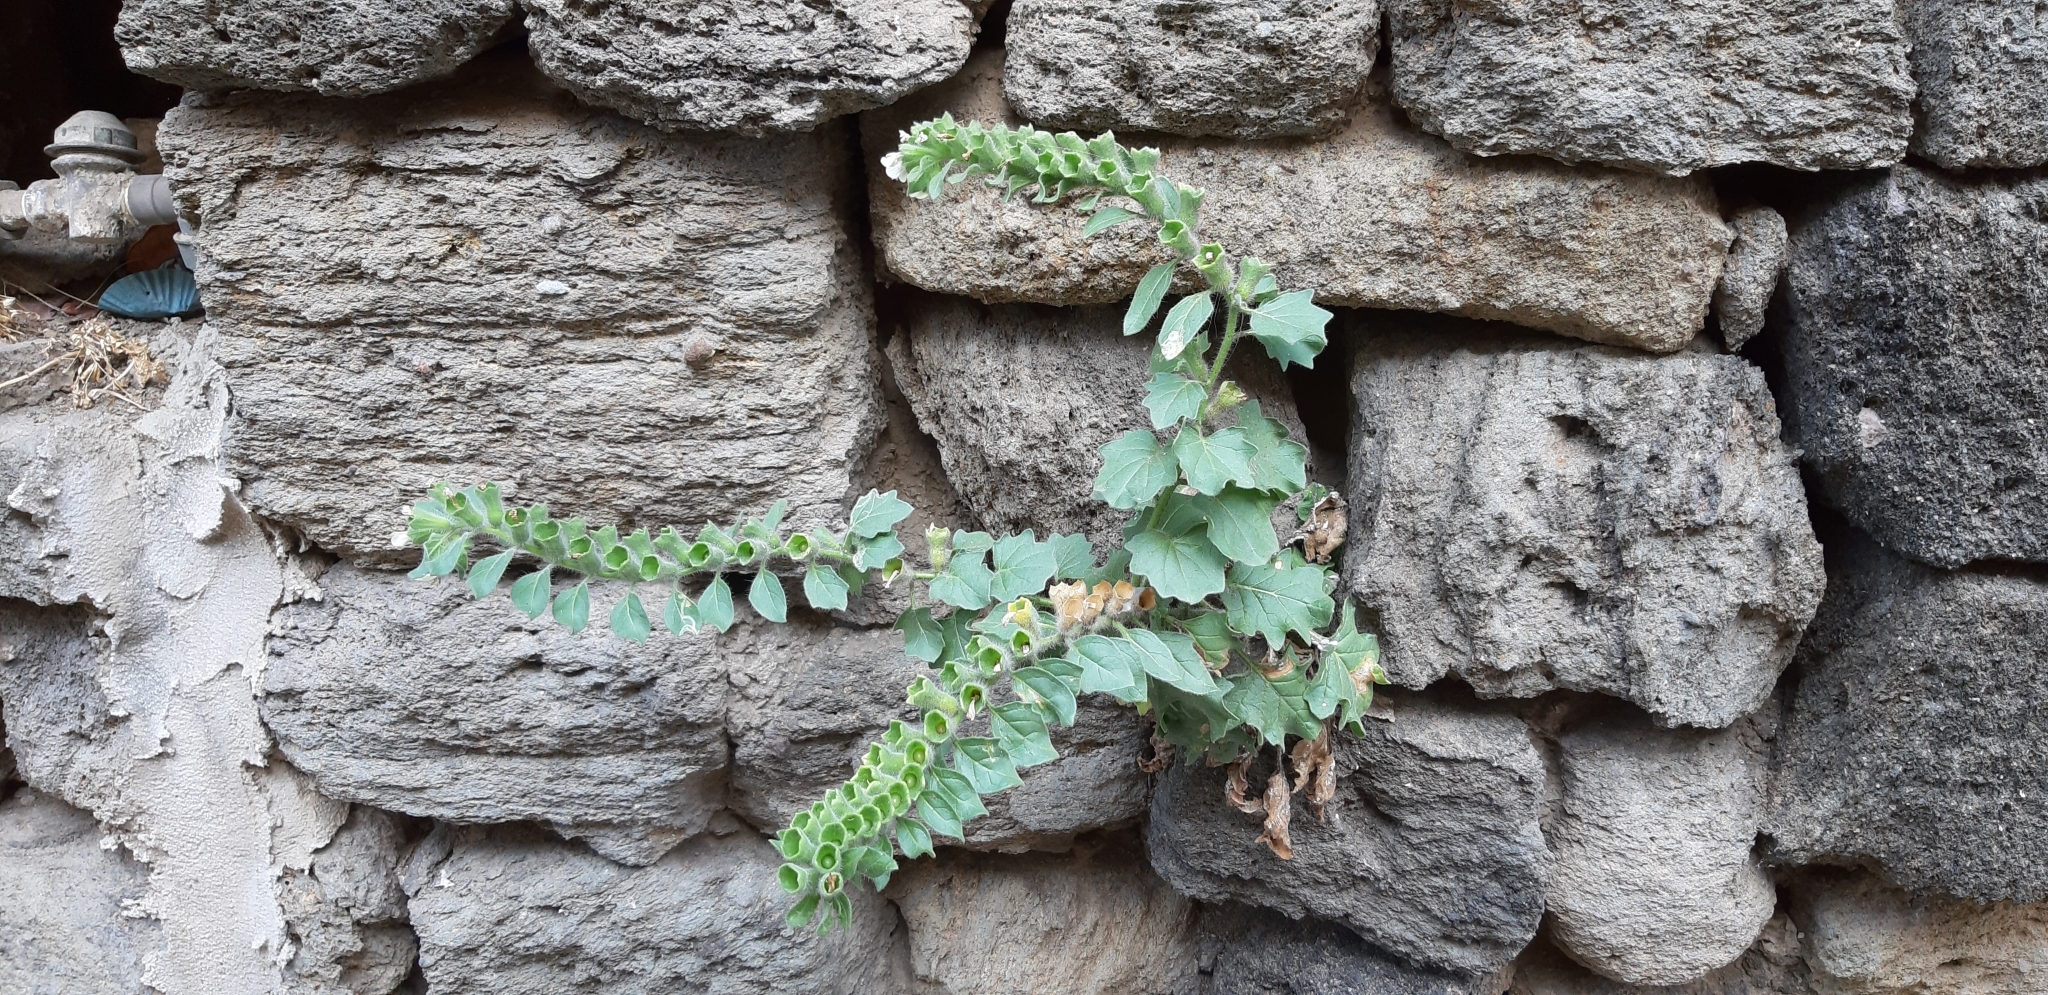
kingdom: Plantae
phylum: Tracheophyta
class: Magnoliopsida
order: Solanales
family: Solanaceae
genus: Hyoscyamus
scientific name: Hyoscyamus albus
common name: White henbane
